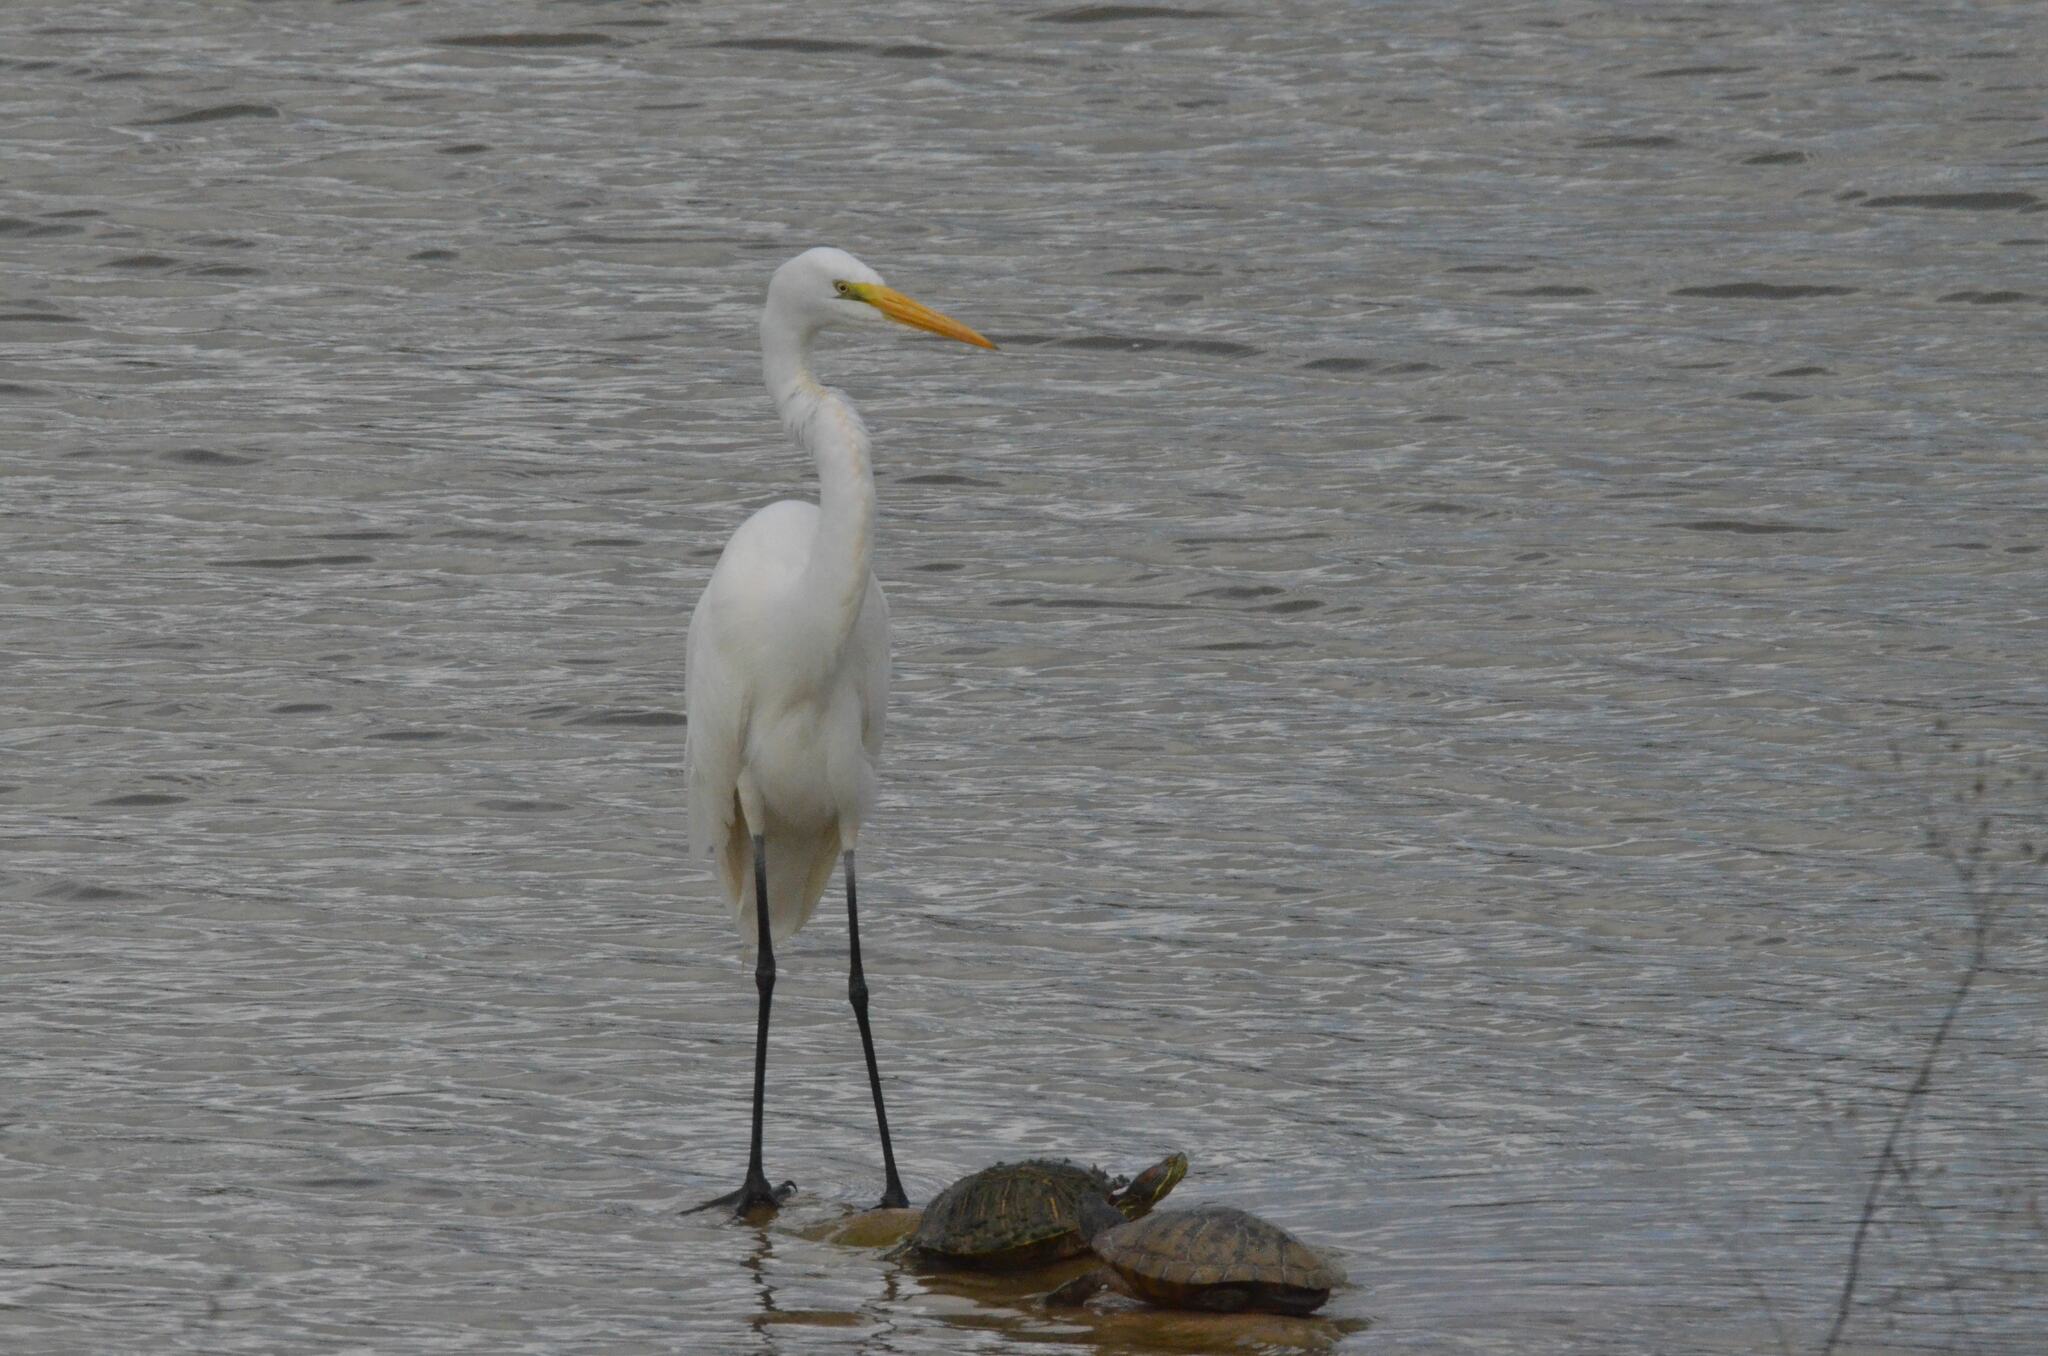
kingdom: Animalia
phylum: Chordata
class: Aves
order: Pelecaniformes
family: Ardeidae
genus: Ardea
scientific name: Ardea alba
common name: Great egret
